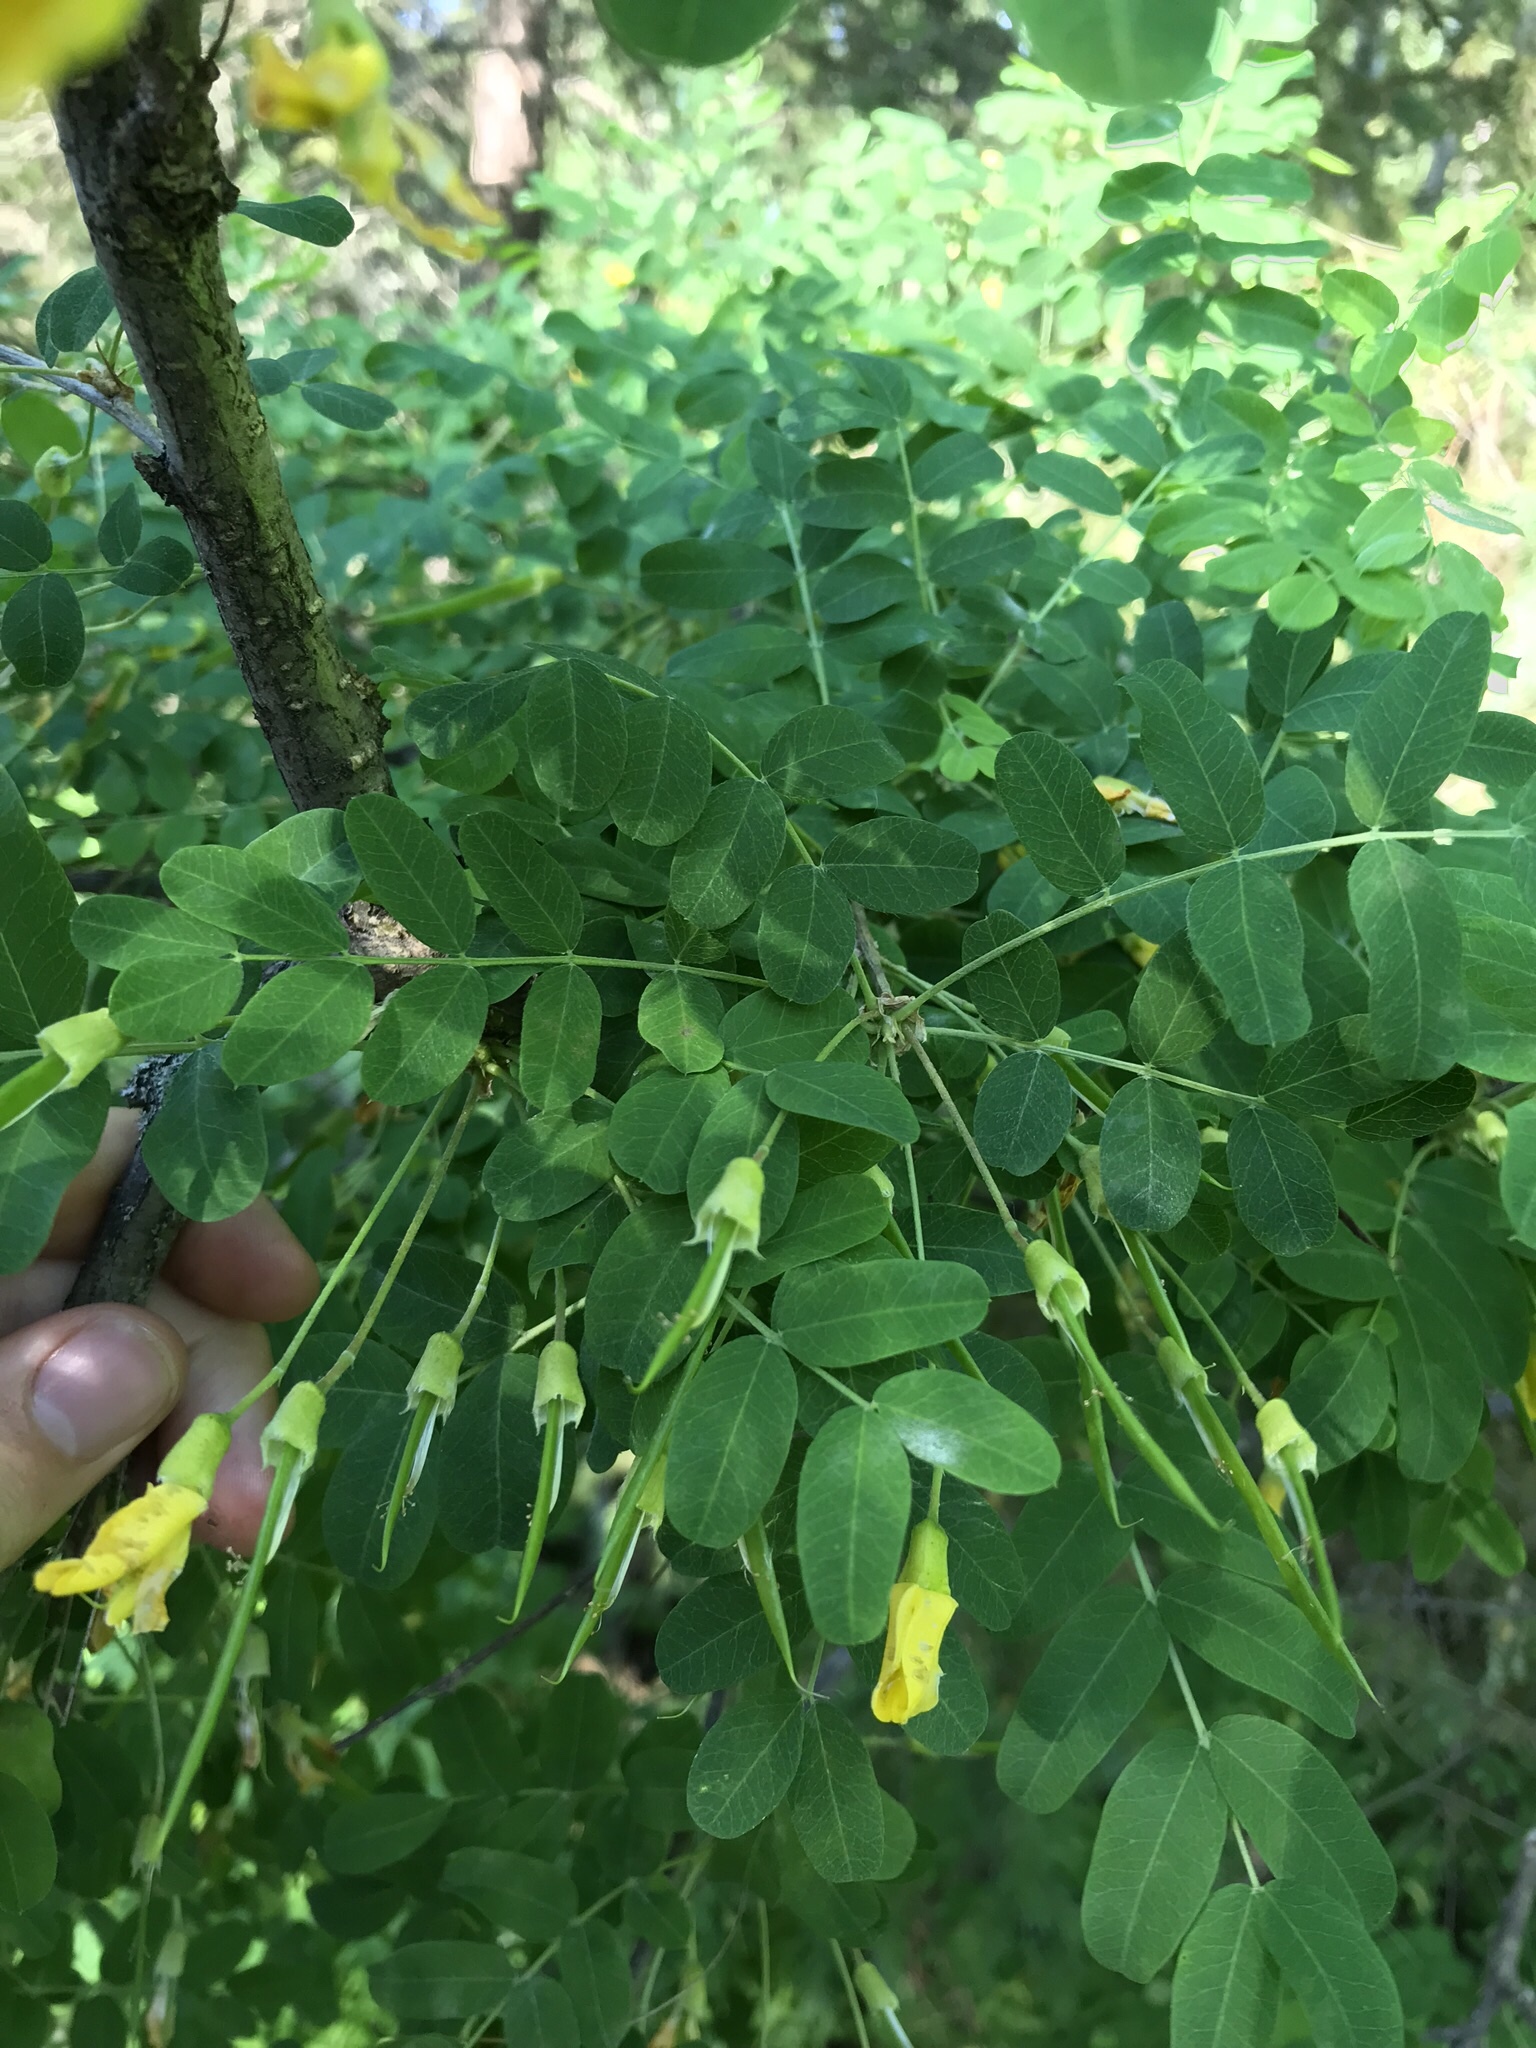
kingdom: Plantae
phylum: Tracheophyta
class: Magnoliopsida
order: Fabales
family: Fabaceae
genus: Caragana
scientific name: Caragana arborescens
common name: Siberian peashrub
